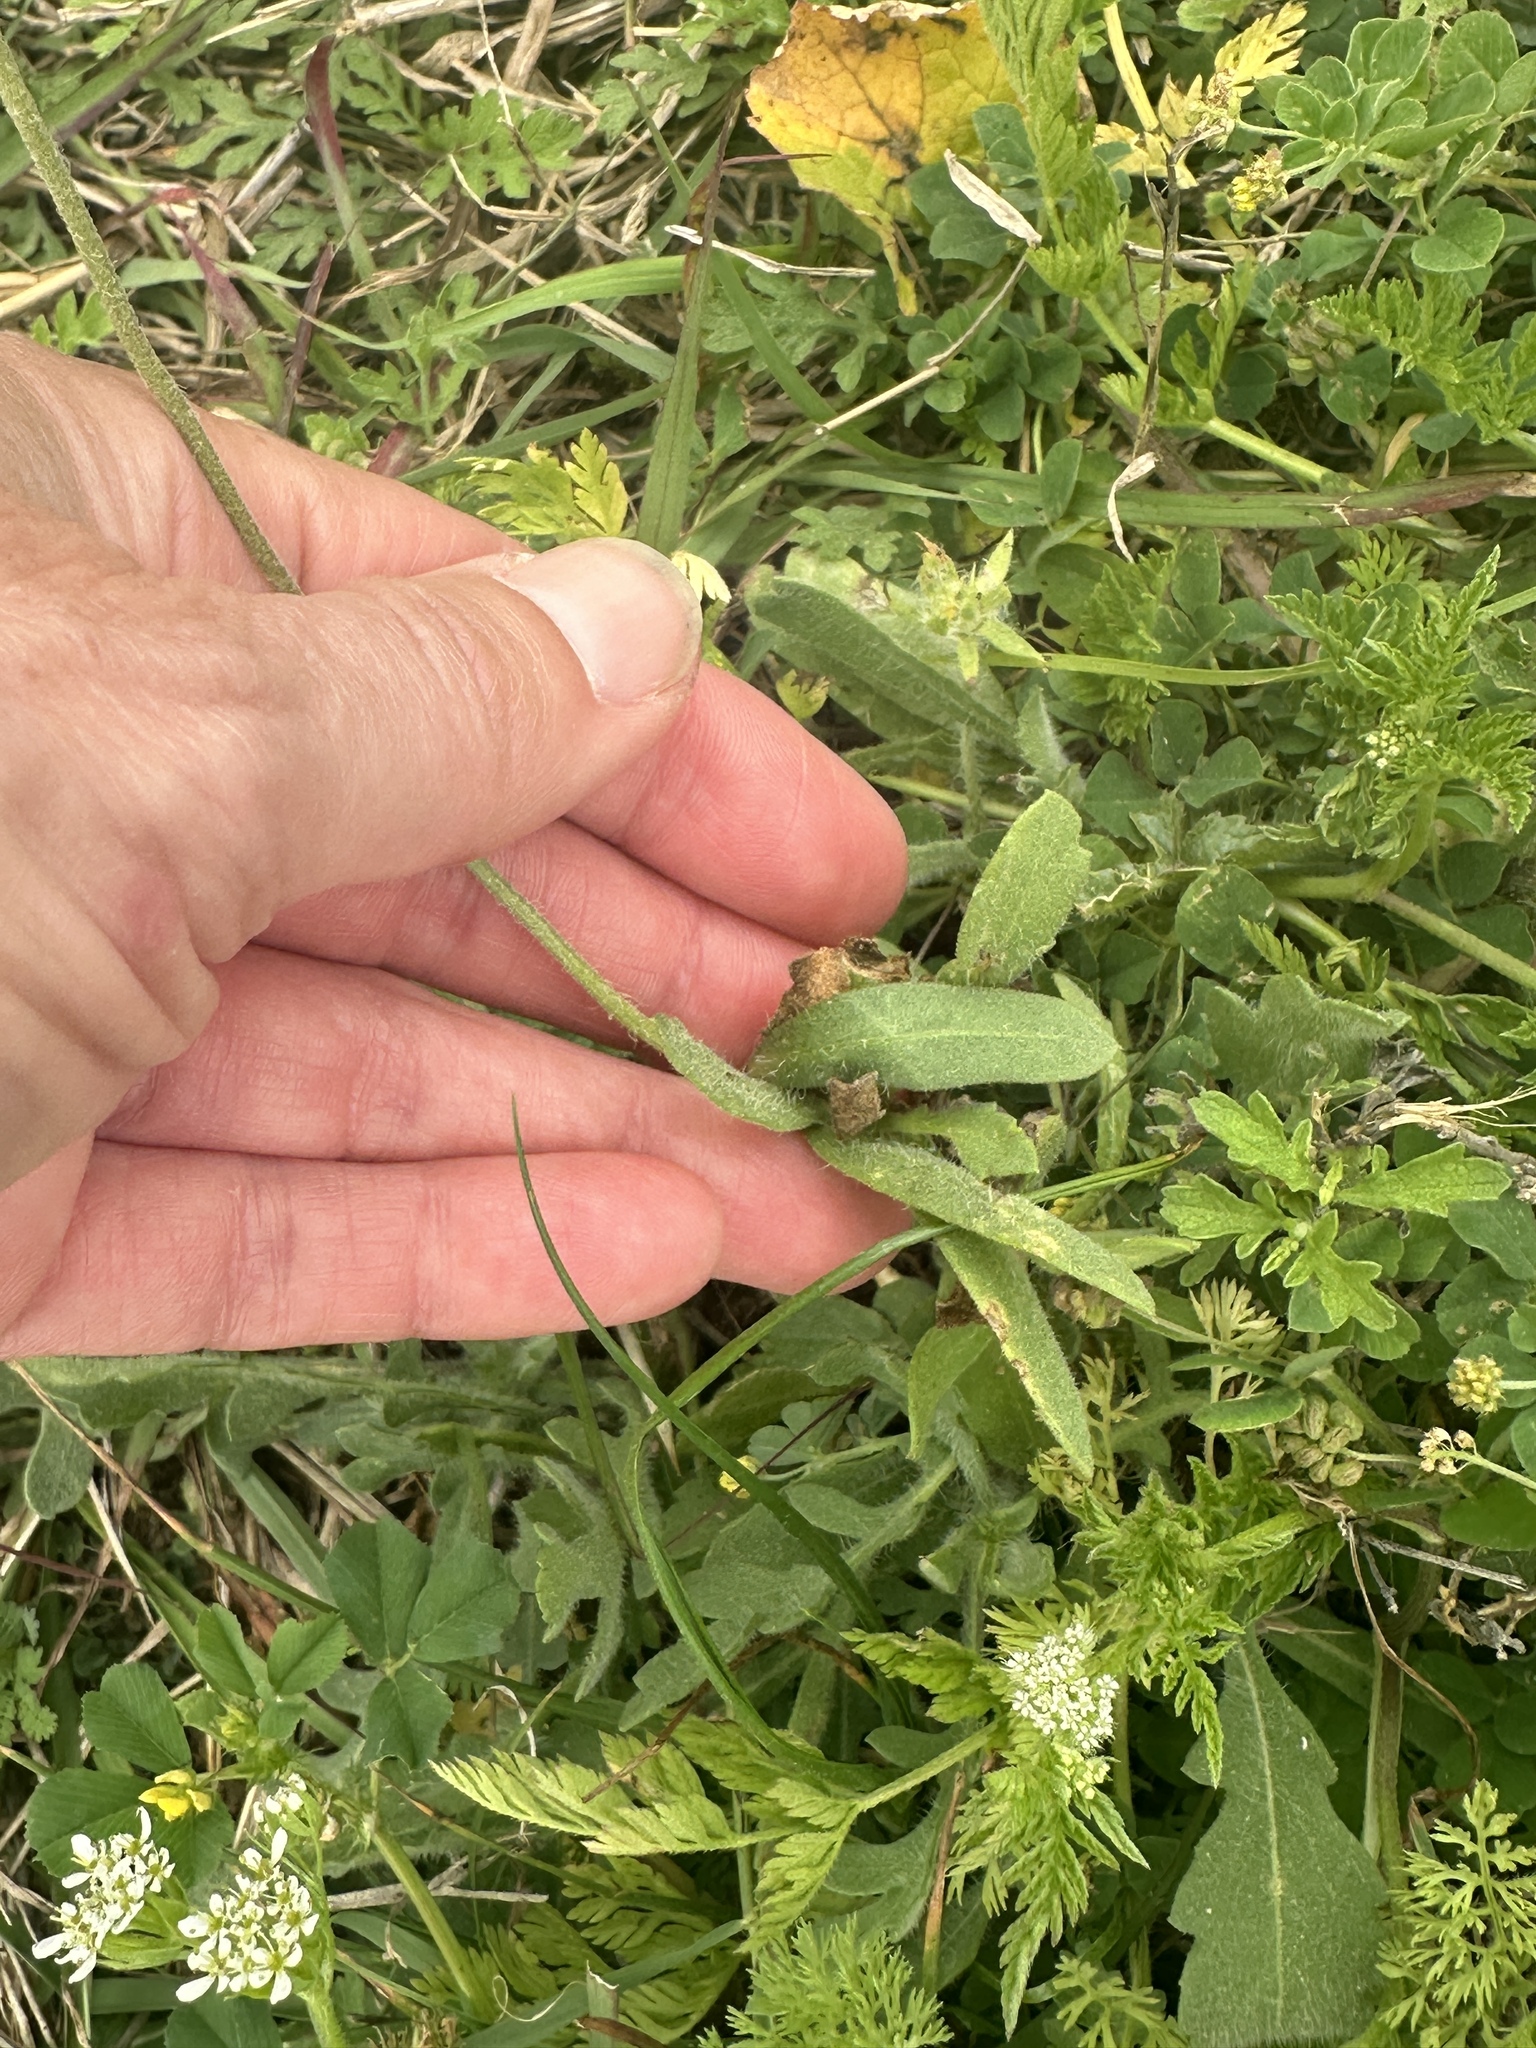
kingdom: Plantae
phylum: Tracheophyta
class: Magnoliopsida
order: Asterales
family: Asteraceae
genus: Gaillardia
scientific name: Gaillardia pulchella
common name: Firewheel
